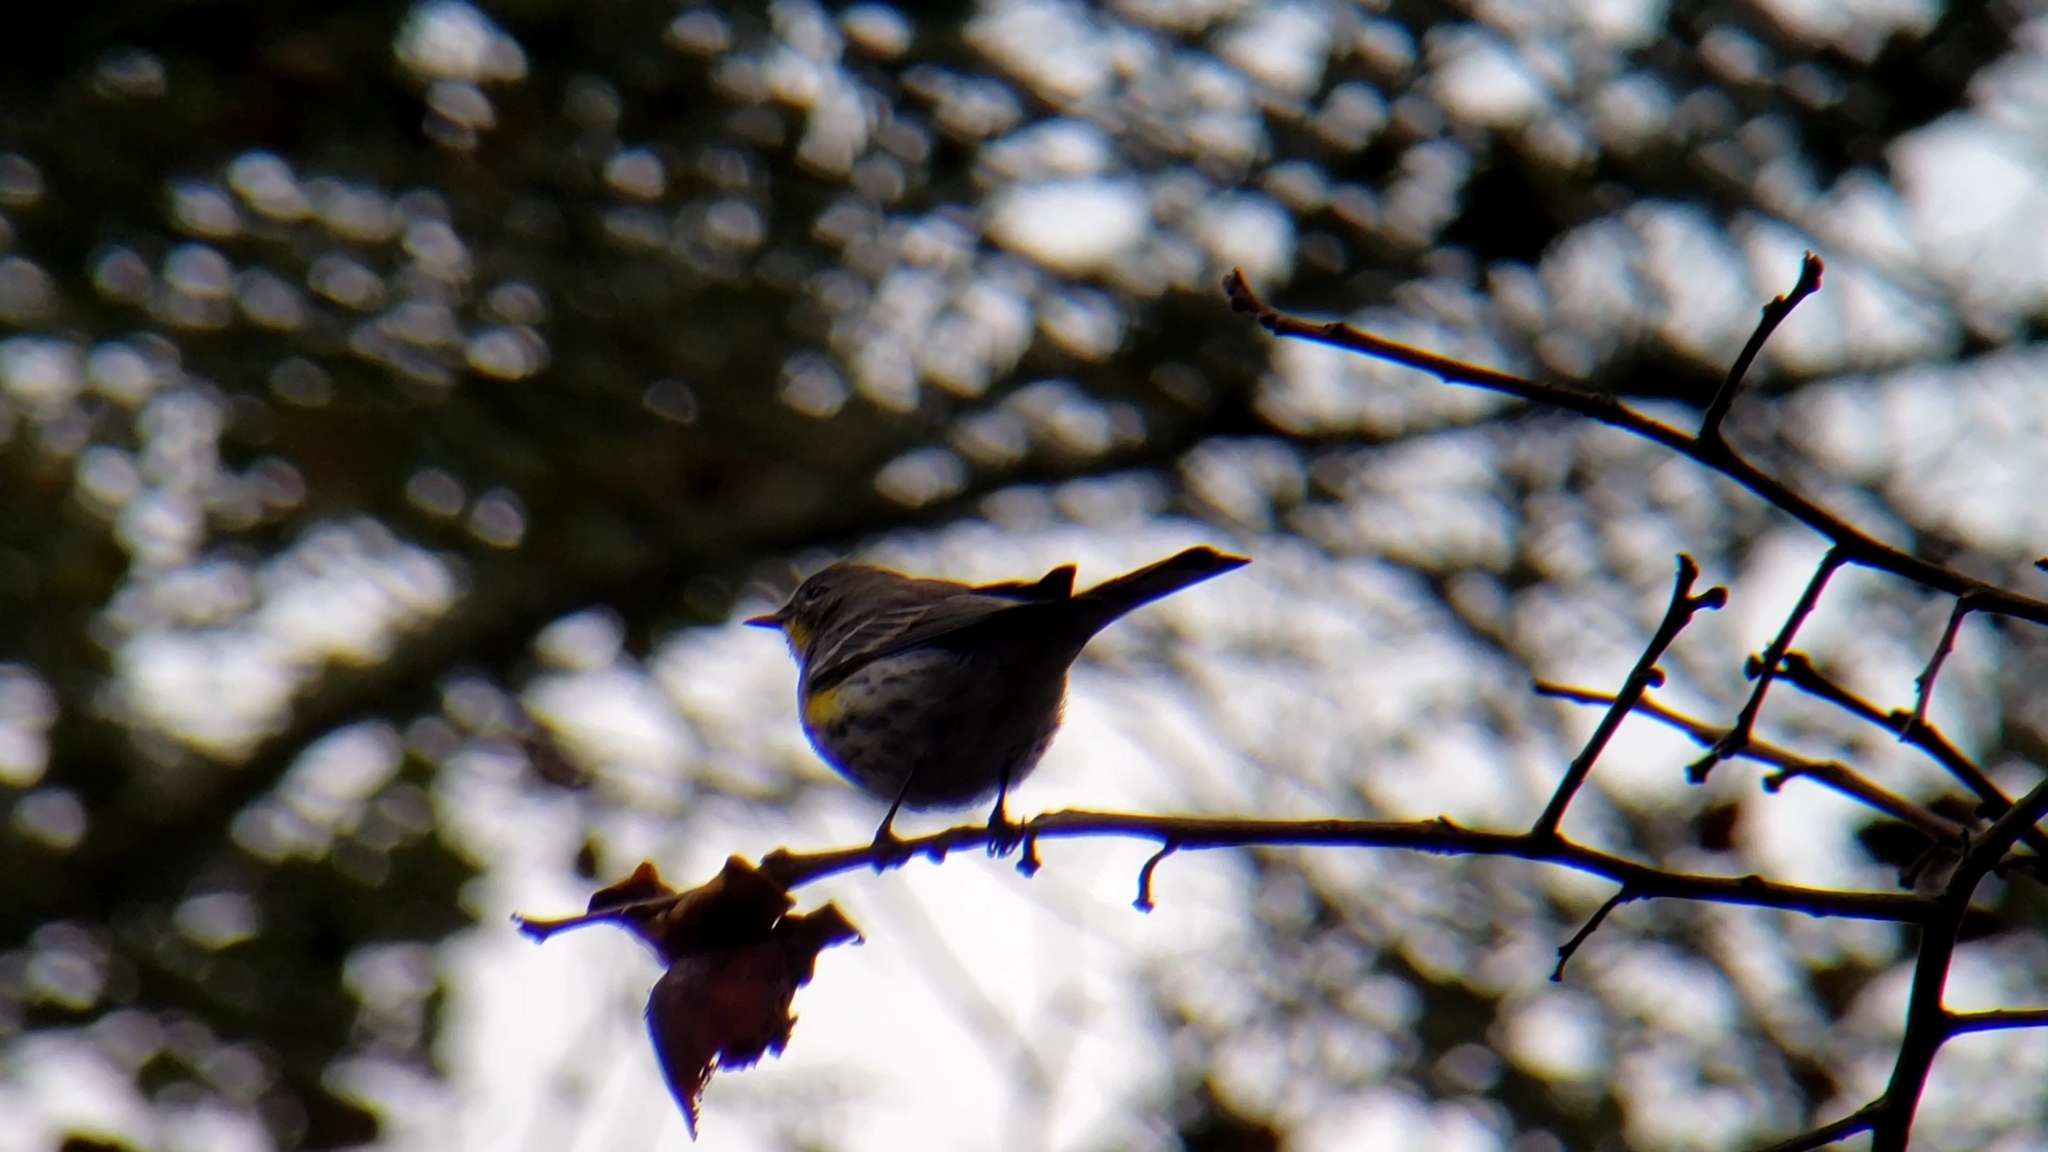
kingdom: Animalia
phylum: Chordata
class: Aves
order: Passeriformes
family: Parulidae
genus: Setophaga
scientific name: Setophaga coronata
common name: Myrtle warbler
